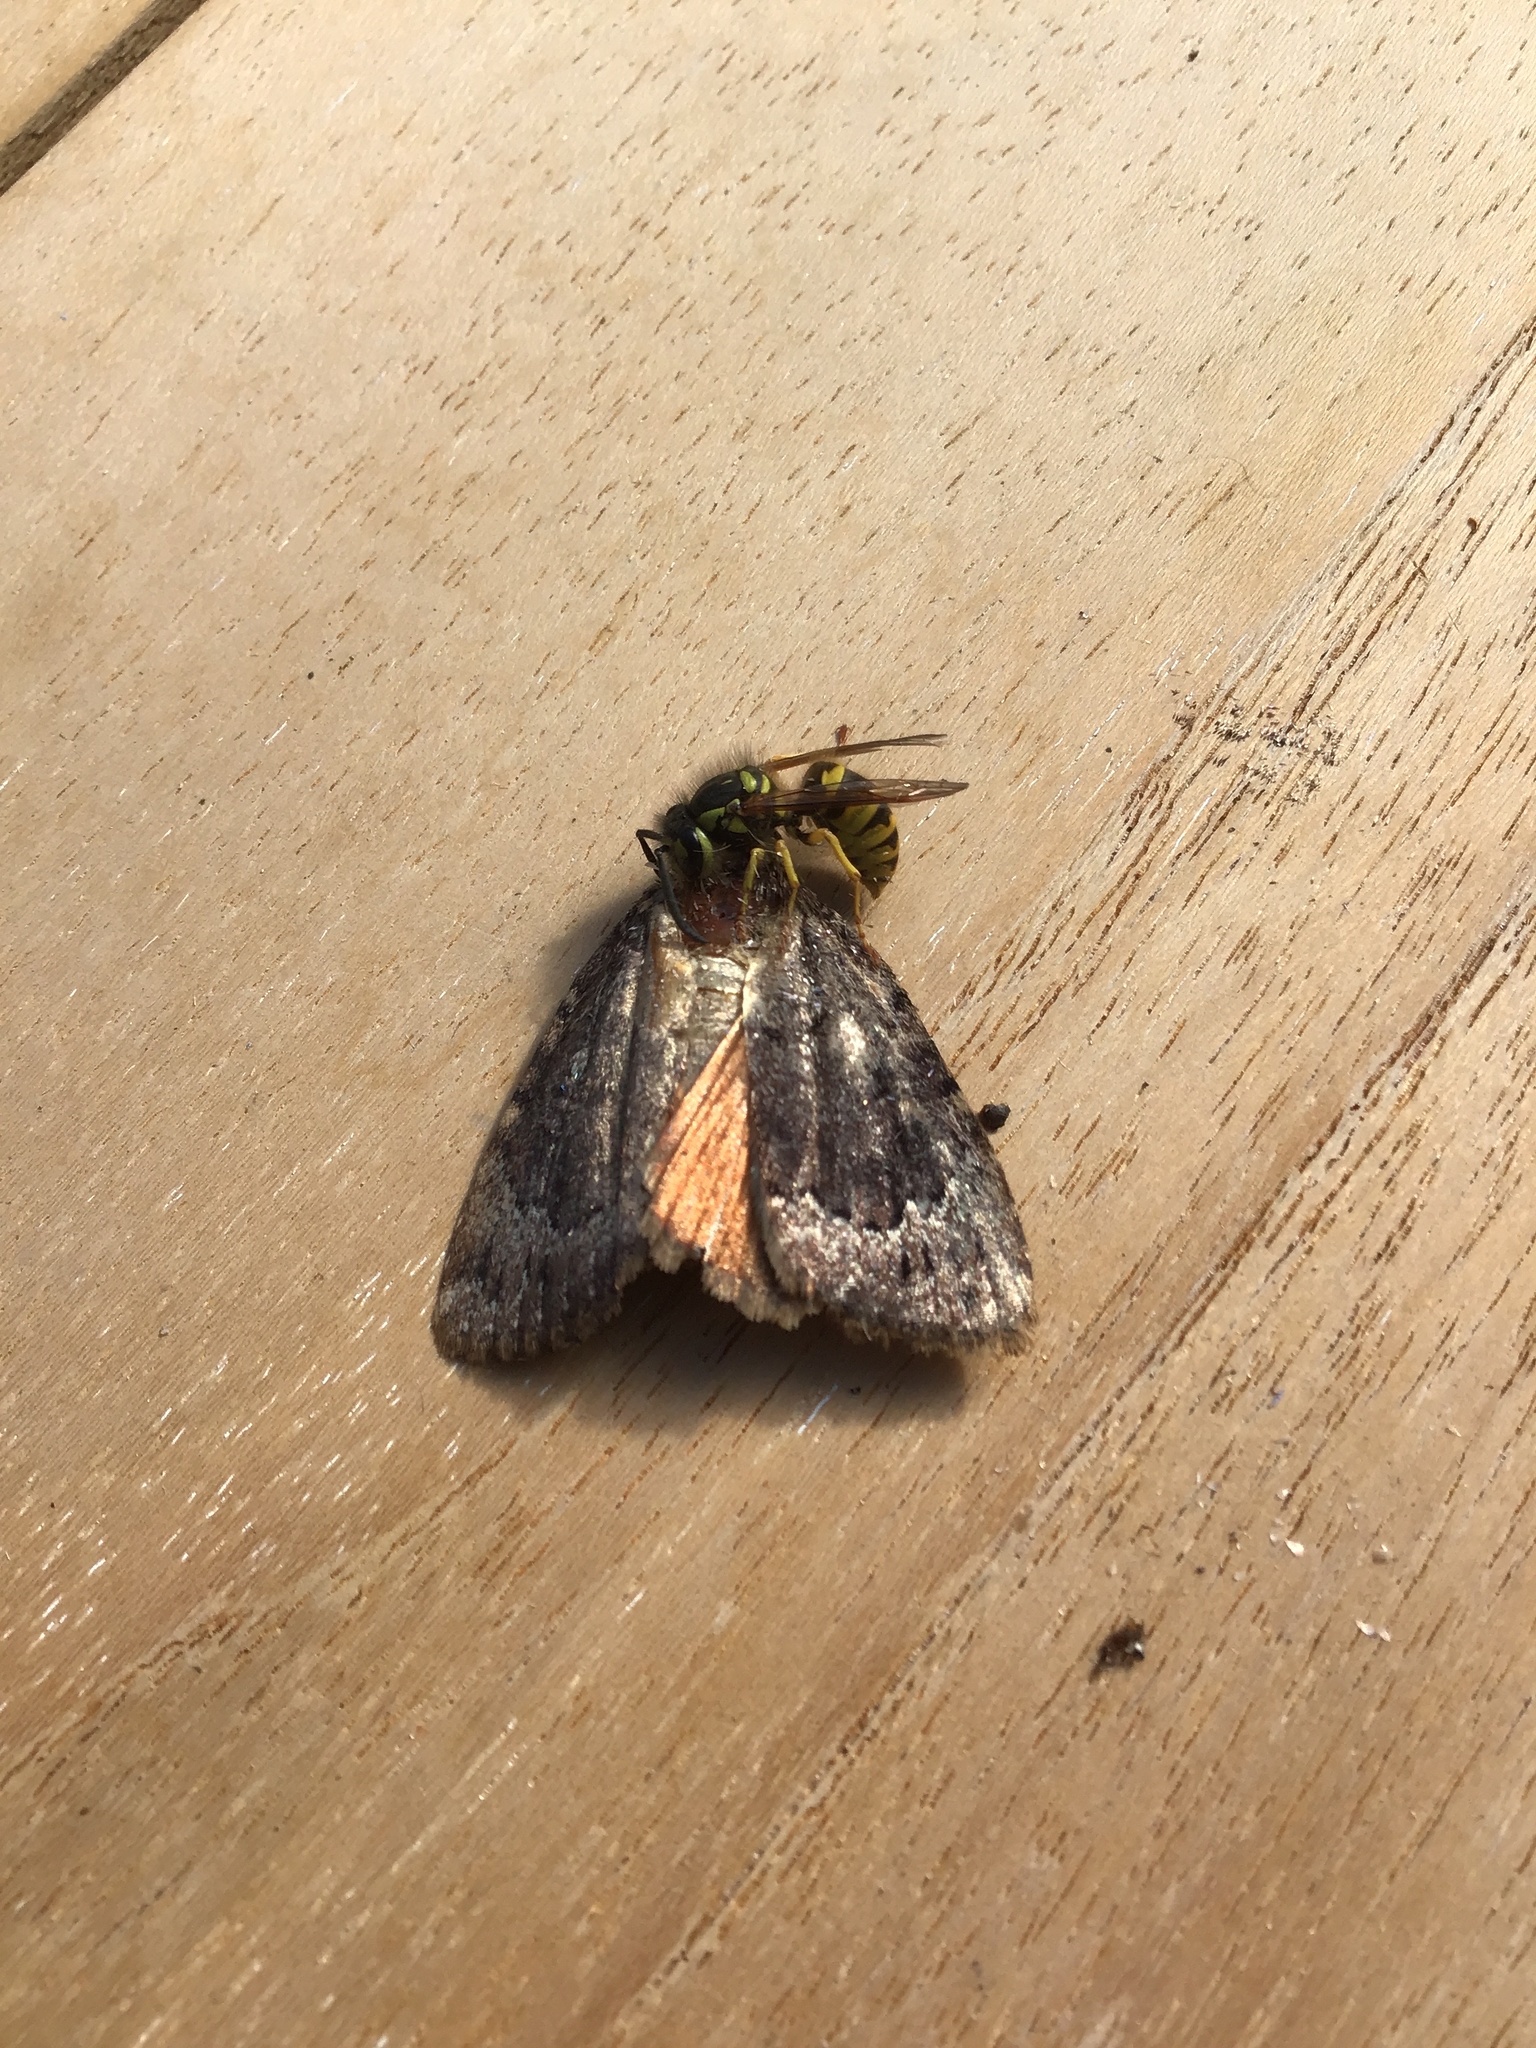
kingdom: Animalia
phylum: Arthropoda
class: Insecta
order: Hymenoptera
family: Vespidae
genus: Vespula
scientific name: Vespula flavopilosa
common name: Downy yellowjacket
